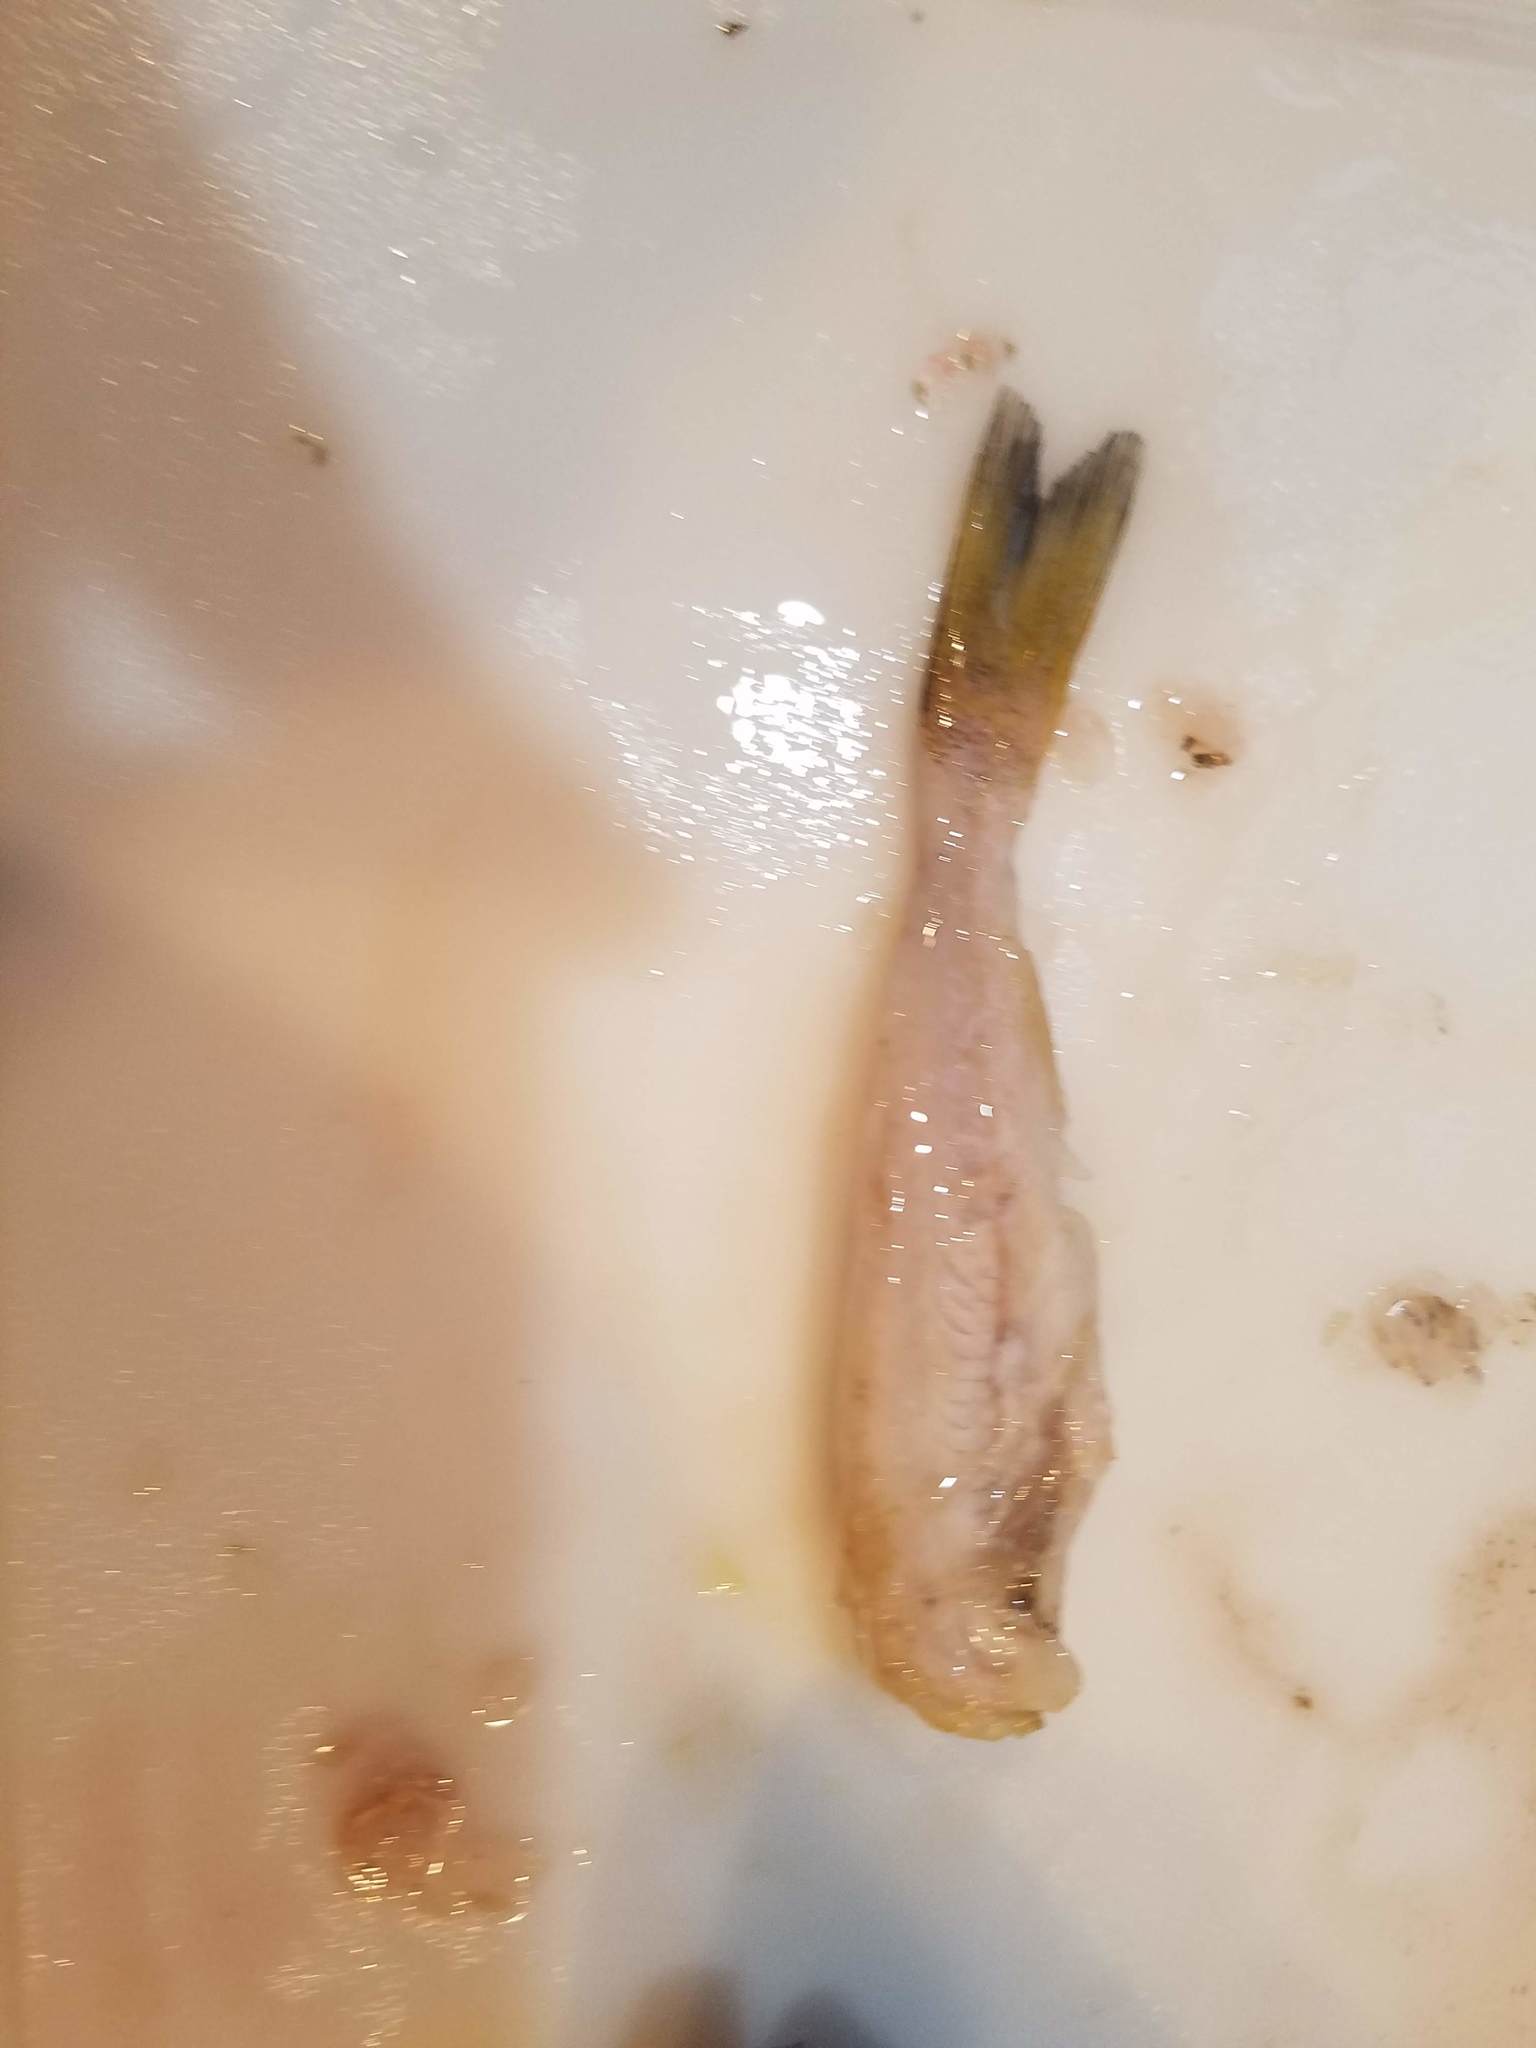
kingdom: Animalia
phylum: Chordata
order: Perciformes
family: Centrarchidae
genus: Micropterus
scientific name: Micropterus dolomieu
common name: Smallmouth bass
